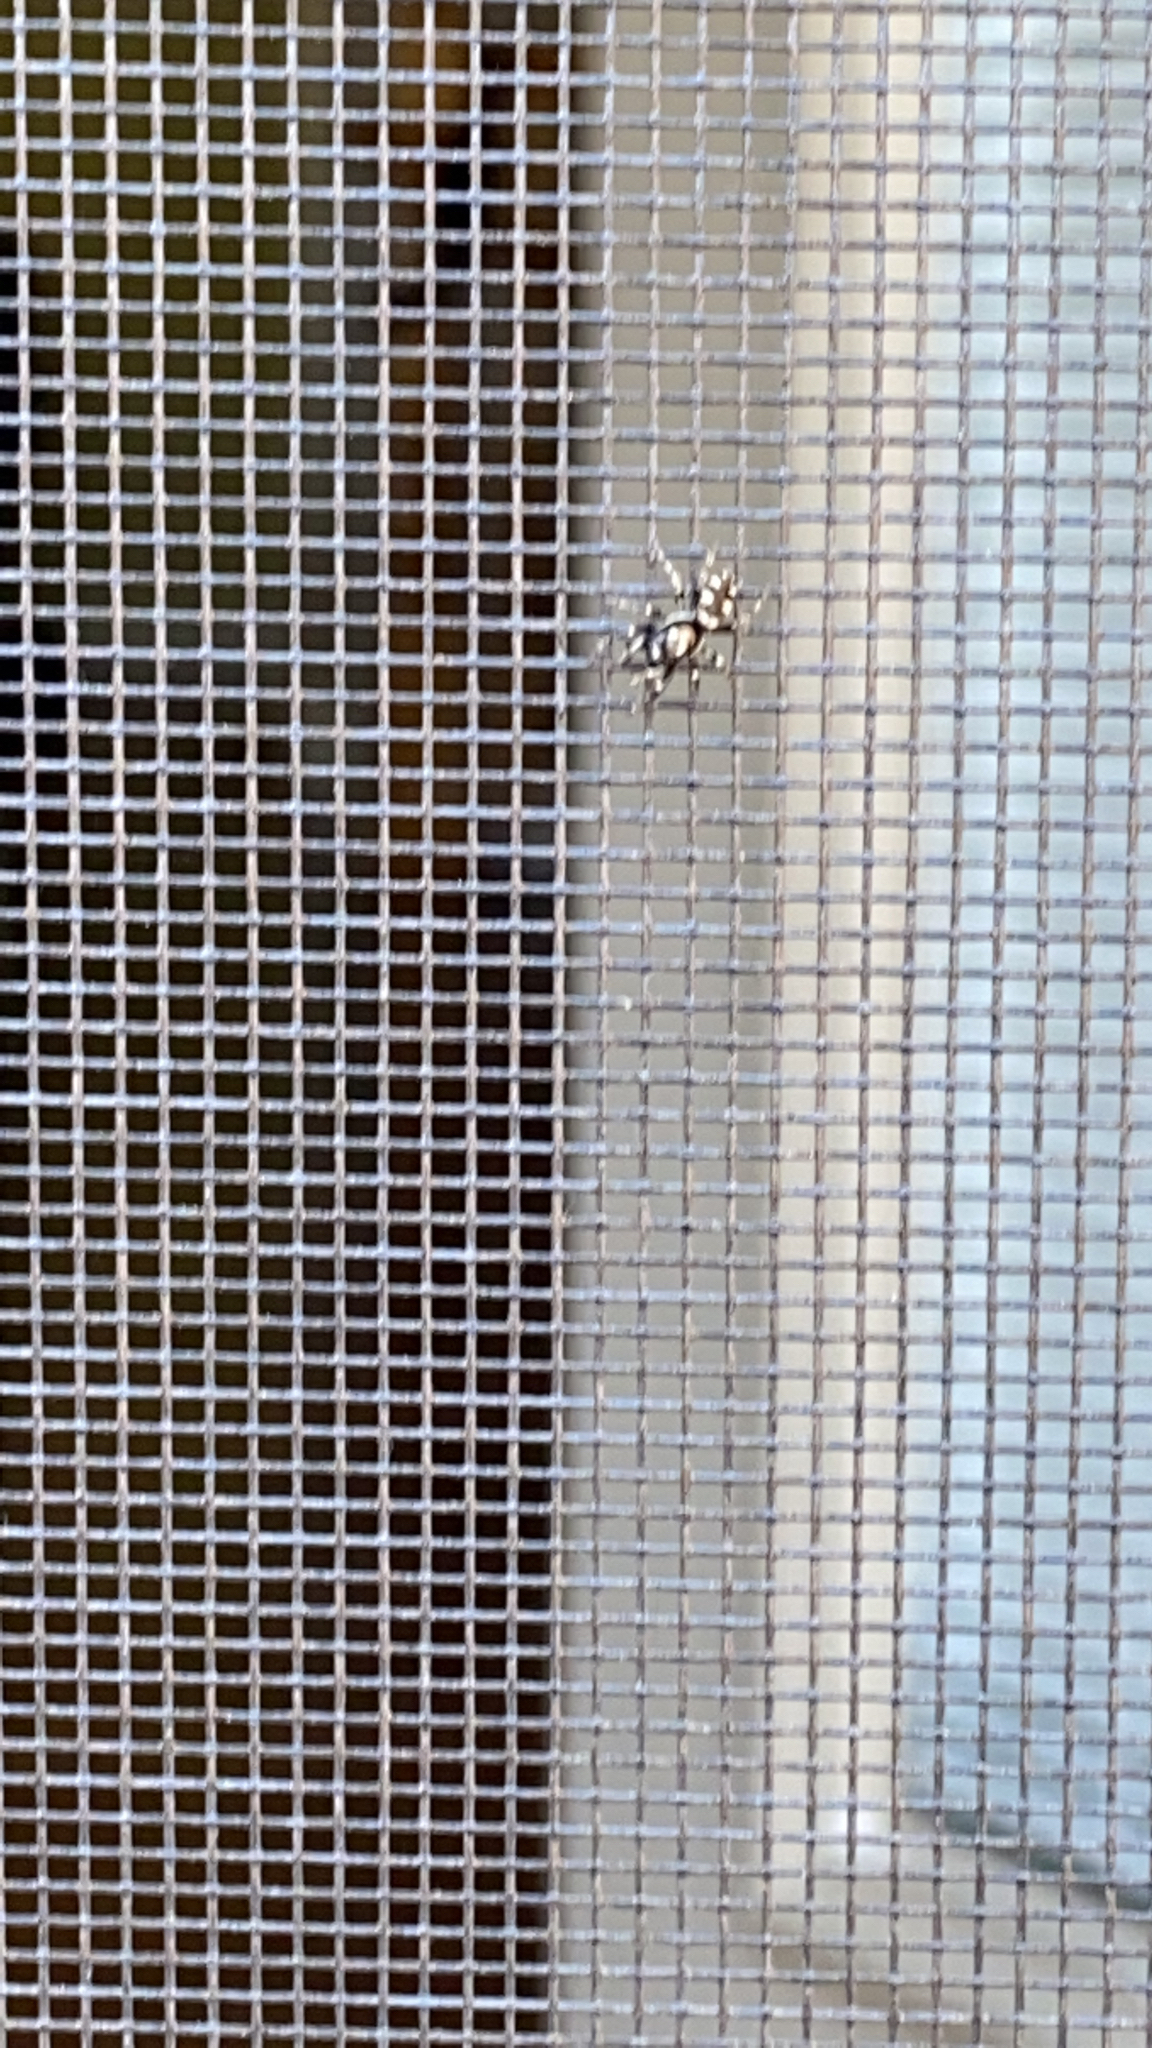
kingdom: Animalia
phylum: Arthropoda
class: Arachnida
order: Araneae
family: Salticidae
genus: Salticus
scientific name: Salticus scenicus
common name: Zebra jumper
